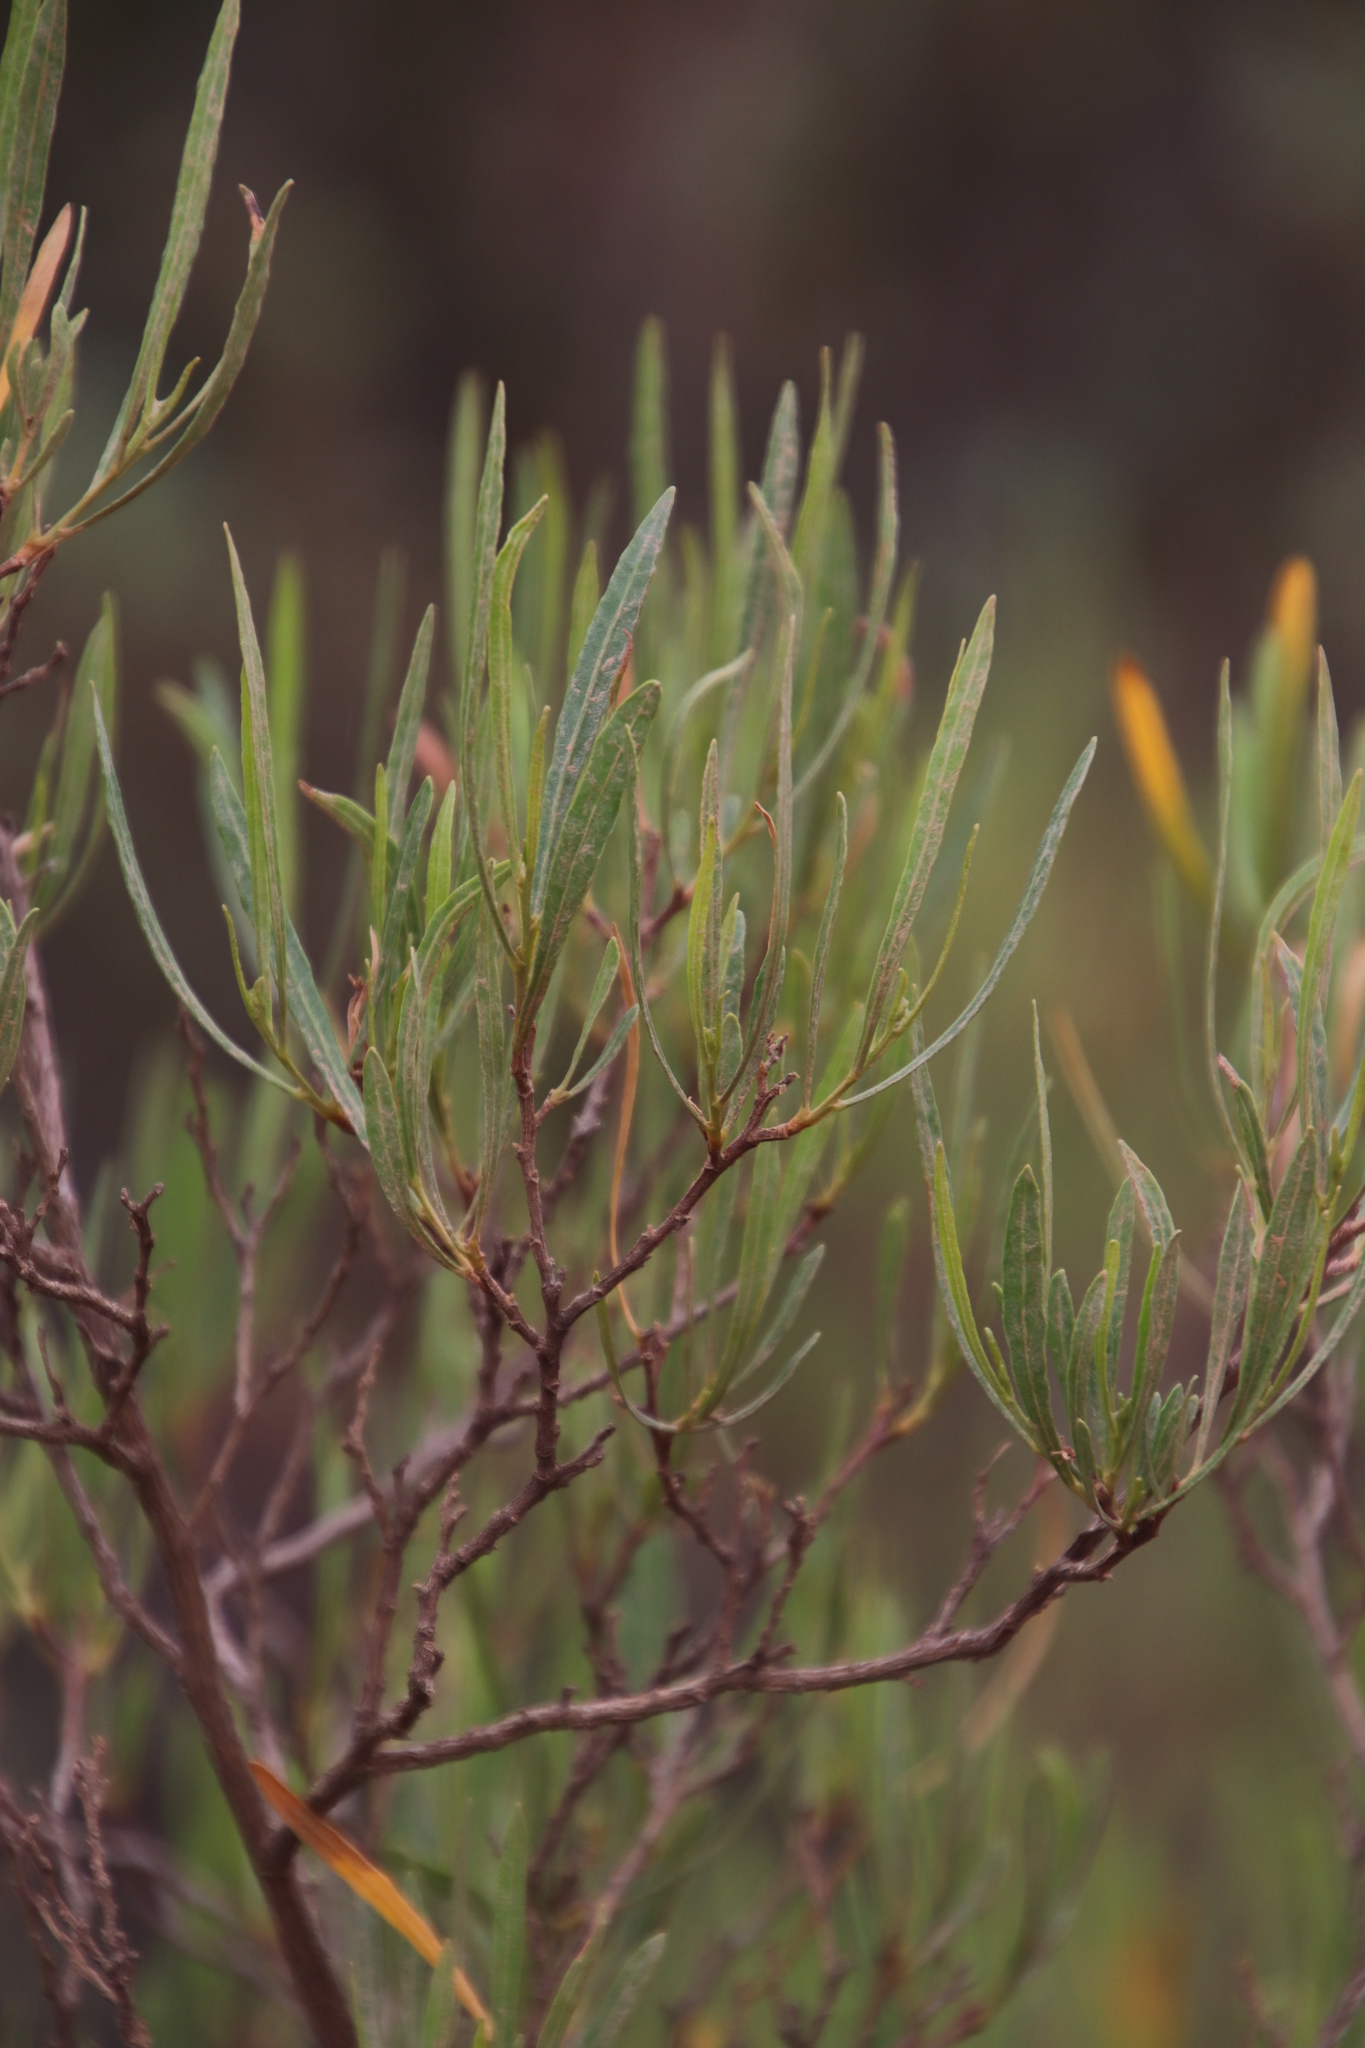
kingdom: Plantae
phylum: Tracheophyta
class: Magnoliopsida
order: Sapindales
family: Sapindaceae
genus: Dodonaea
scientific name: Dodonaea viscosa
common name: Hopbush
